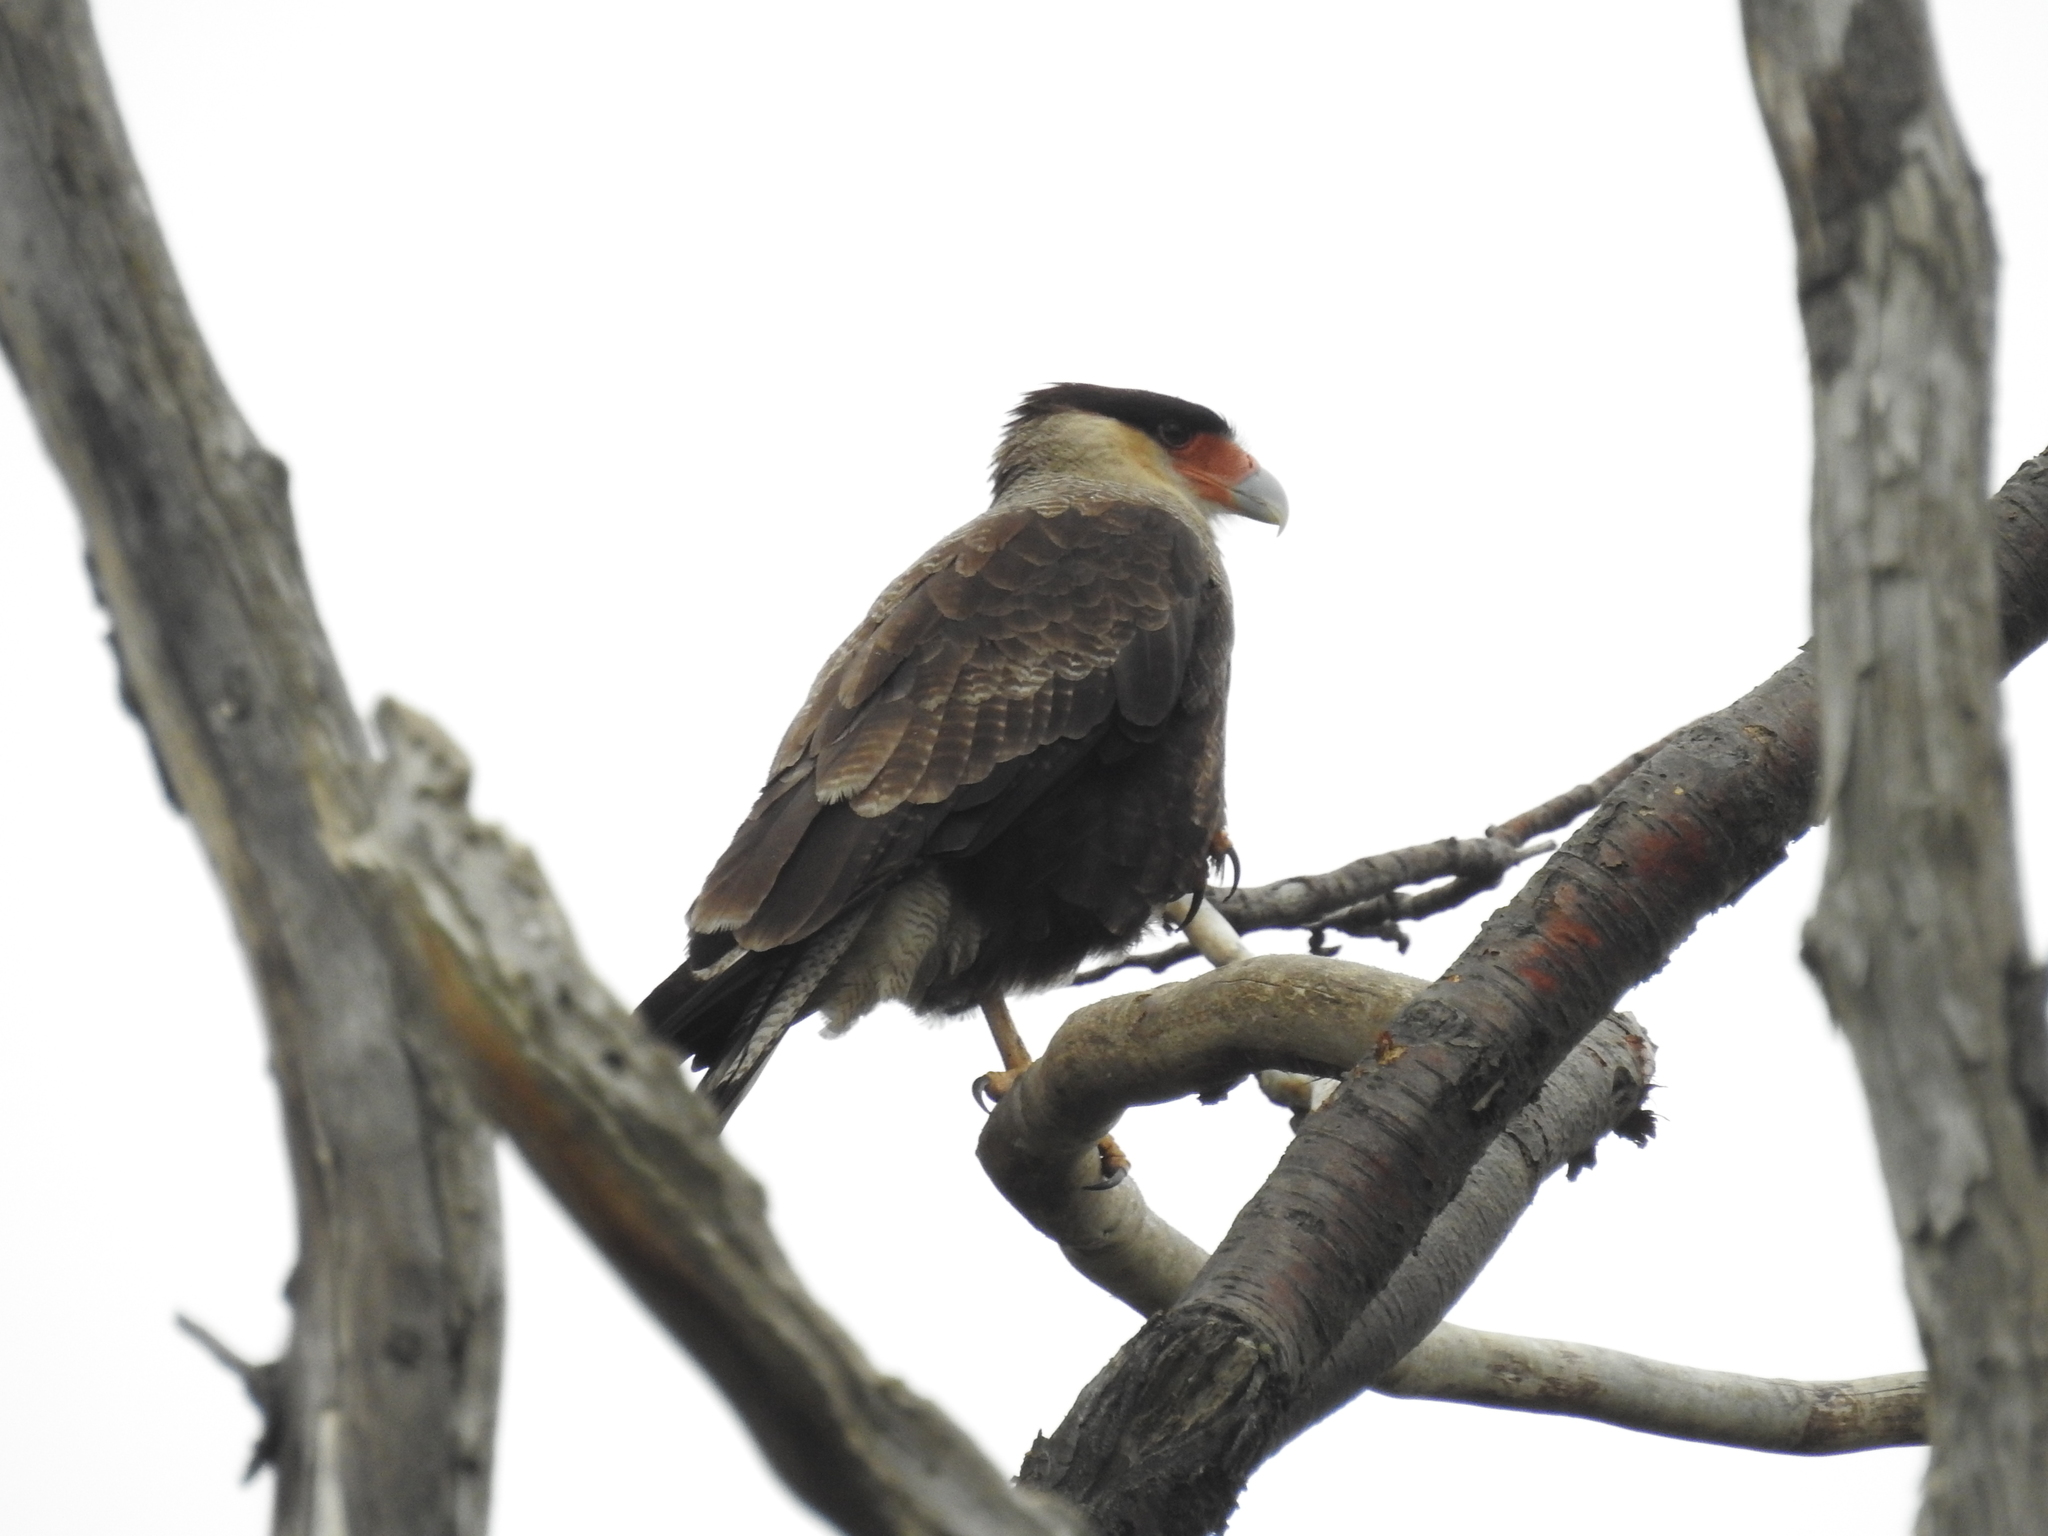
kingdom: Animalia
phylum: Chordata
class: Aves
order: Falconiformes
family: Falconidae
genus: Caracara
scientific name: Caracara plancus
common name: Southern caracara
